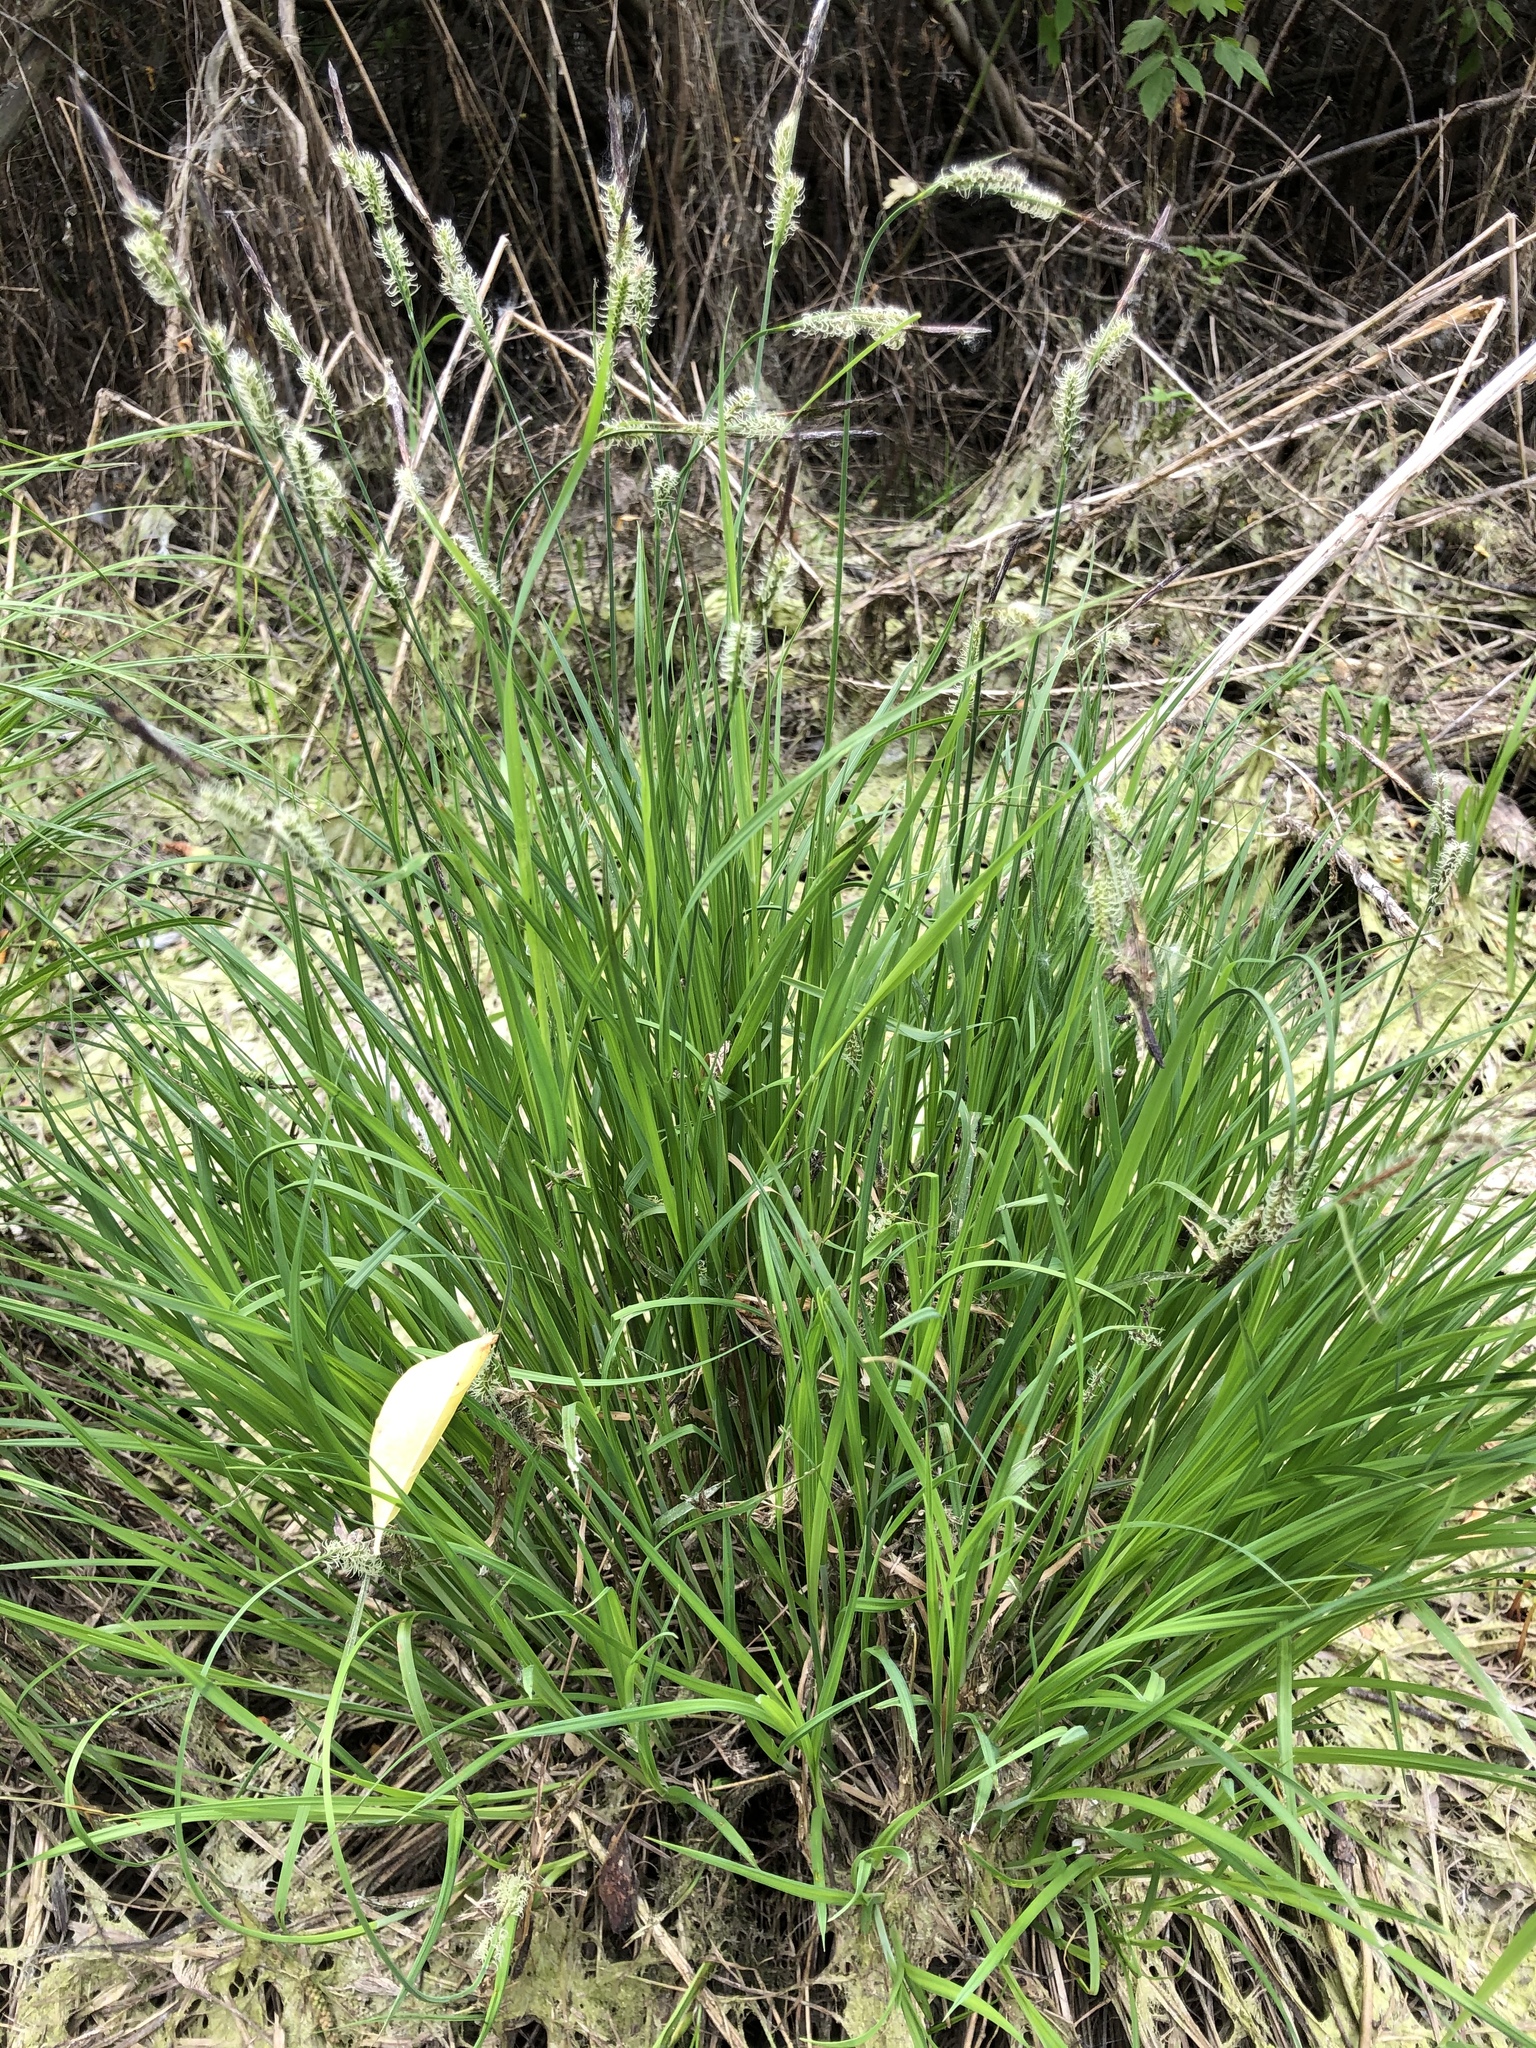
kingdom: Plantae
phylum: Tracheophyta
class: Liliopsida
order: Poales
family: Cyperaceae
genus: Carex
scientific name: Carex cespitosa
